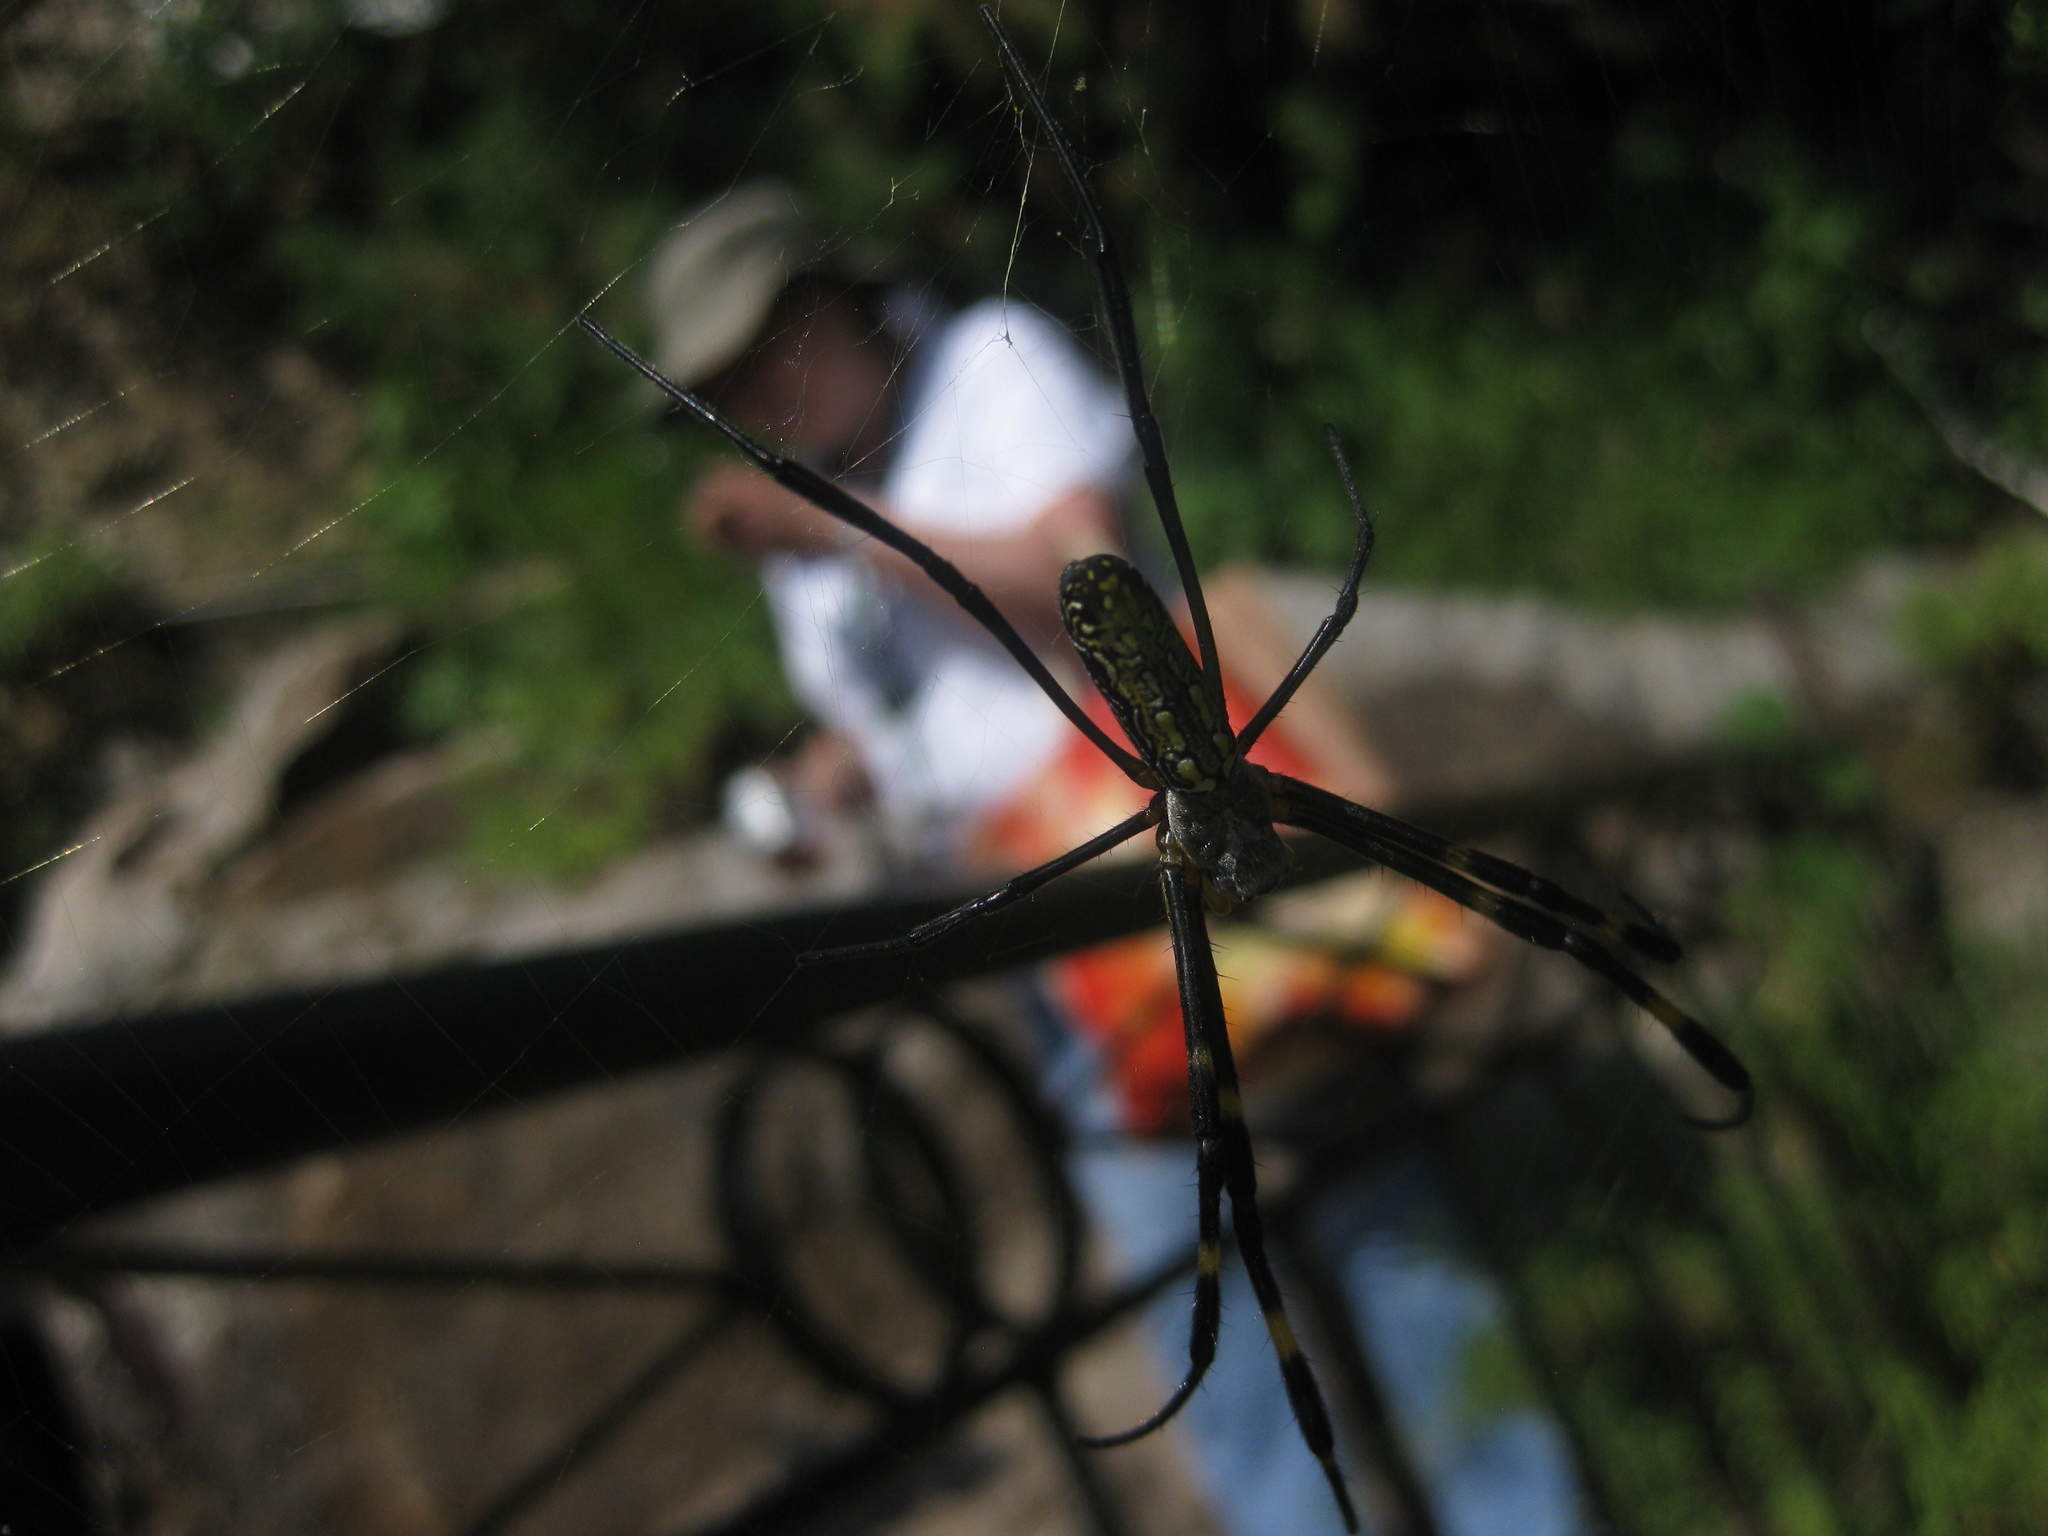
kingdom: Animalia
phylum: Arthropoda
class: Arachnida
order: Araneae
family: Araneidae
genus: Trichonephila
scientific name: Trichonephila clavata
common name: Jorō spider
